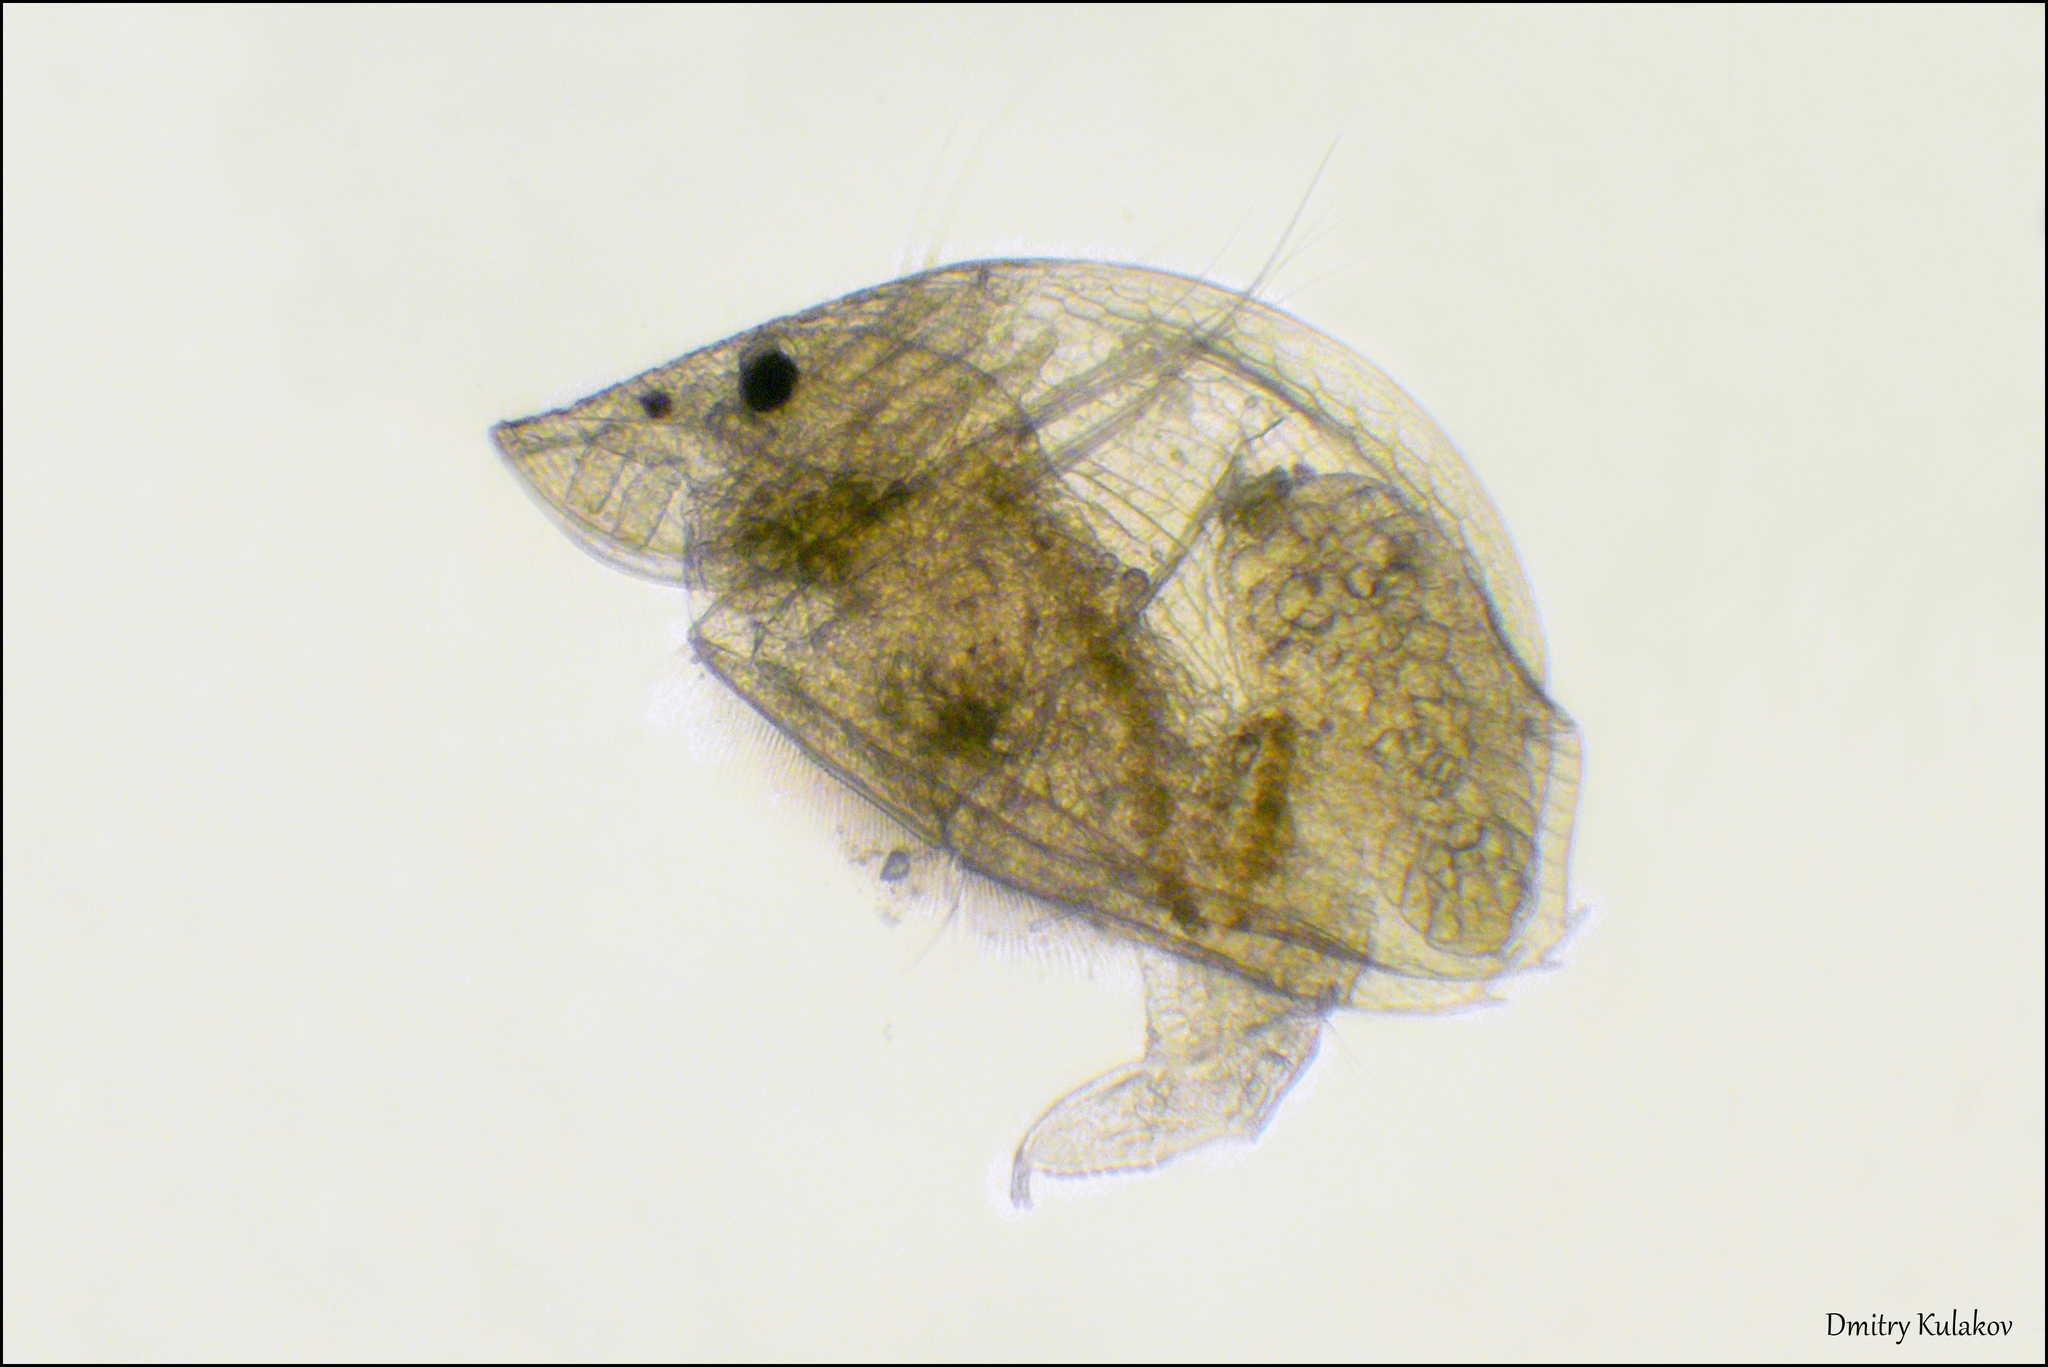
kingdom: Animalia
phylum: Arthropoda
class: Branchiopoda
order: Diplostraca
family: Chydoridae
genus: Graptoleberis
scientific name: Graptoleberis testudinaria
